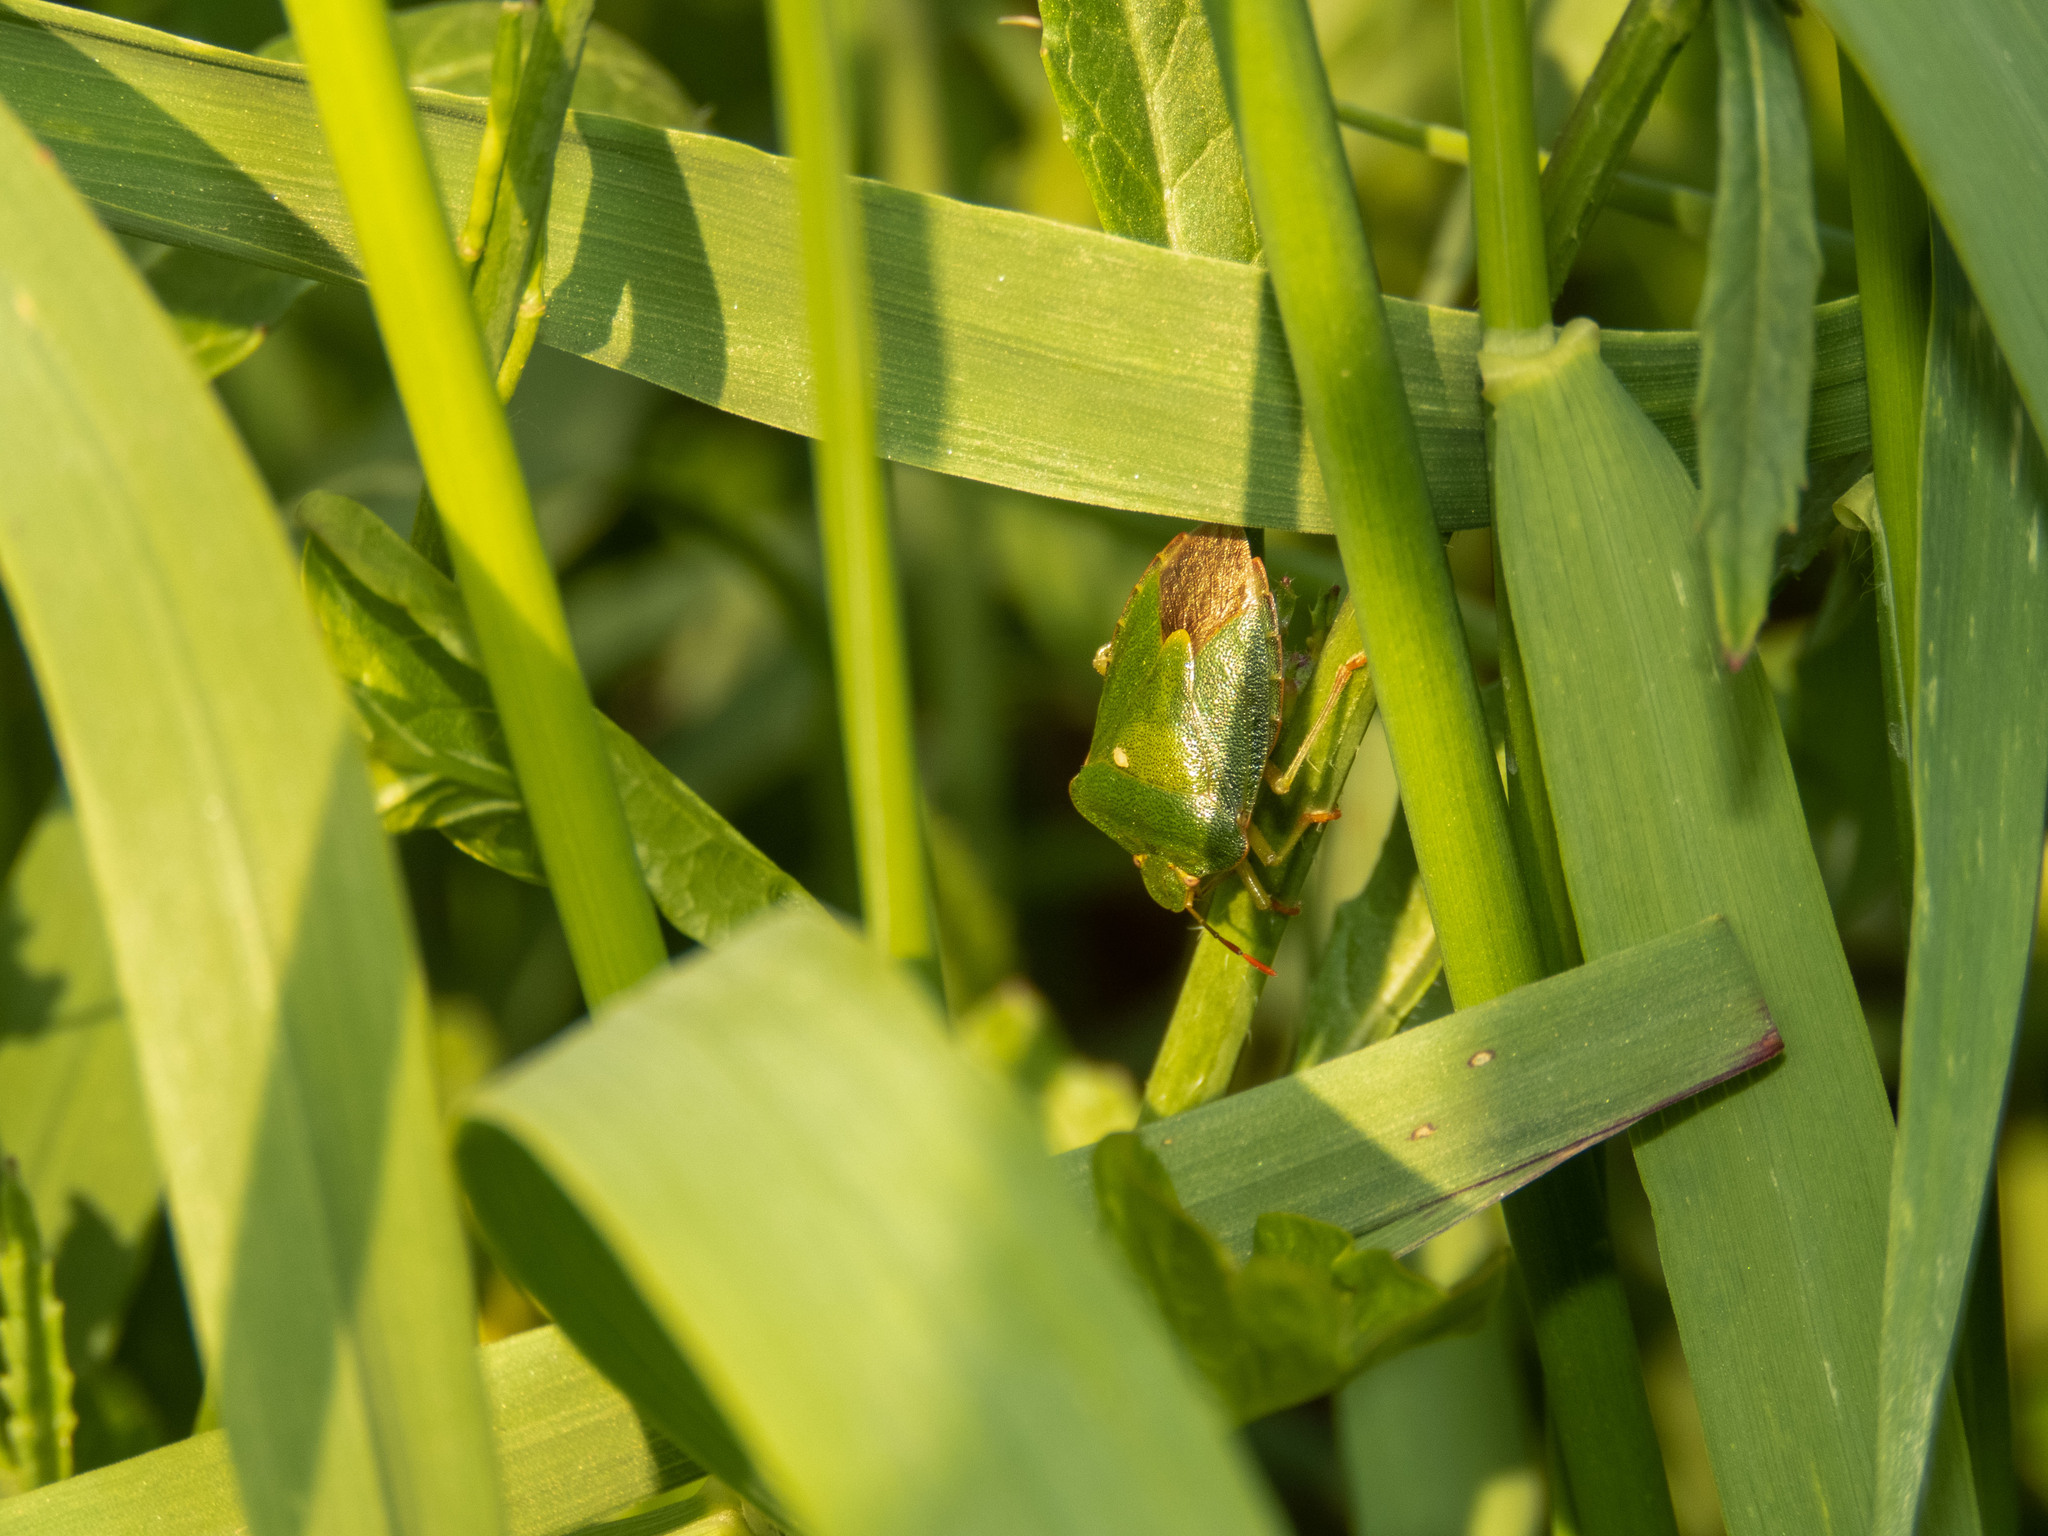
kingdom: Animalia
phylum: Arthropoda
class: Insecta
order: Hemiptera
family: Pentatomidae
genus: Palomena
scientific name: Palomena prasina
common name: Green shieldbug
